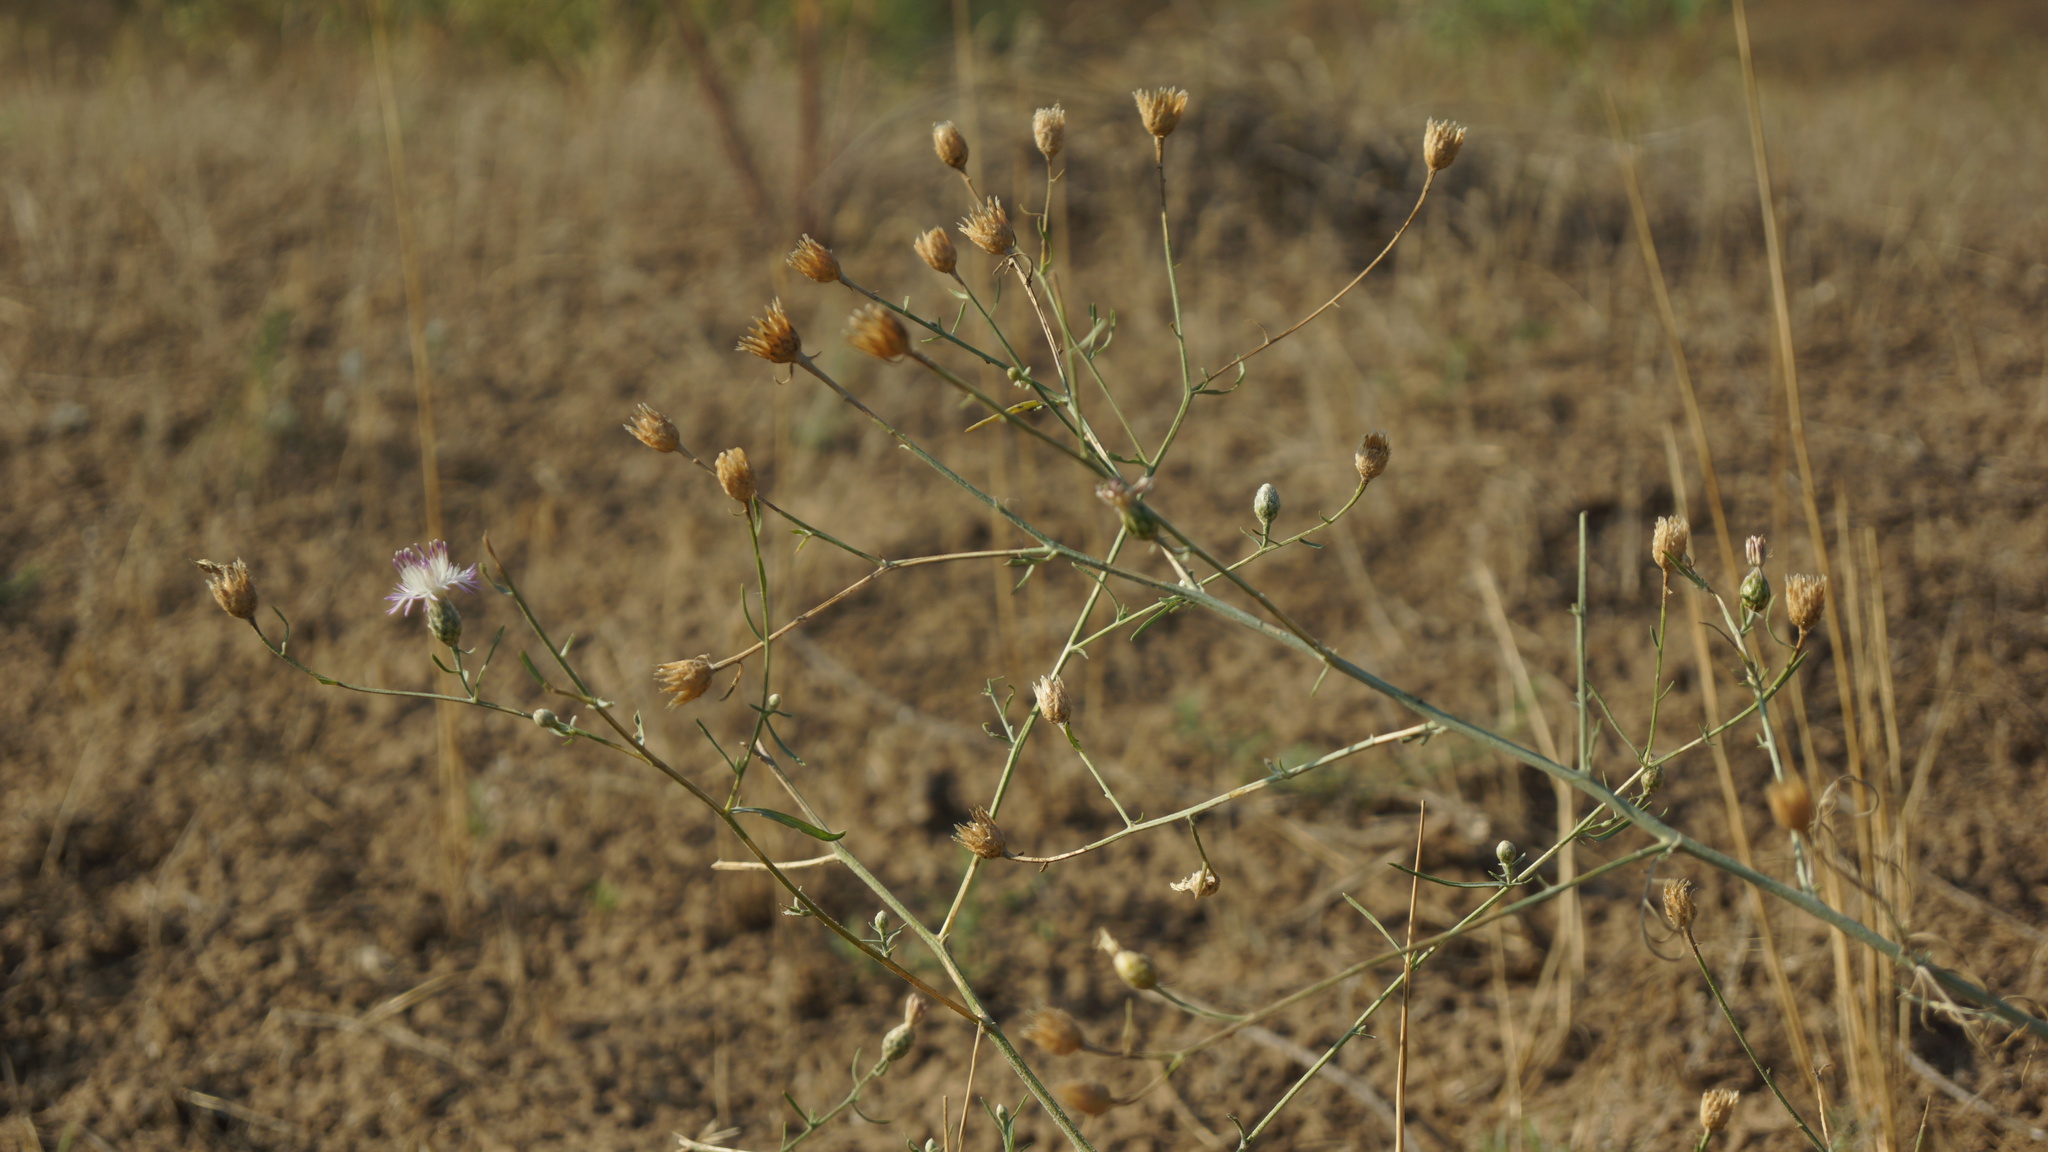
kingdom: Plantae
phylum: Tracheophyta
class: Magnoliopsida
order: Asterales
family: Asteraceae
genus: Centaurea
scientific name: Centaurea arenaria
